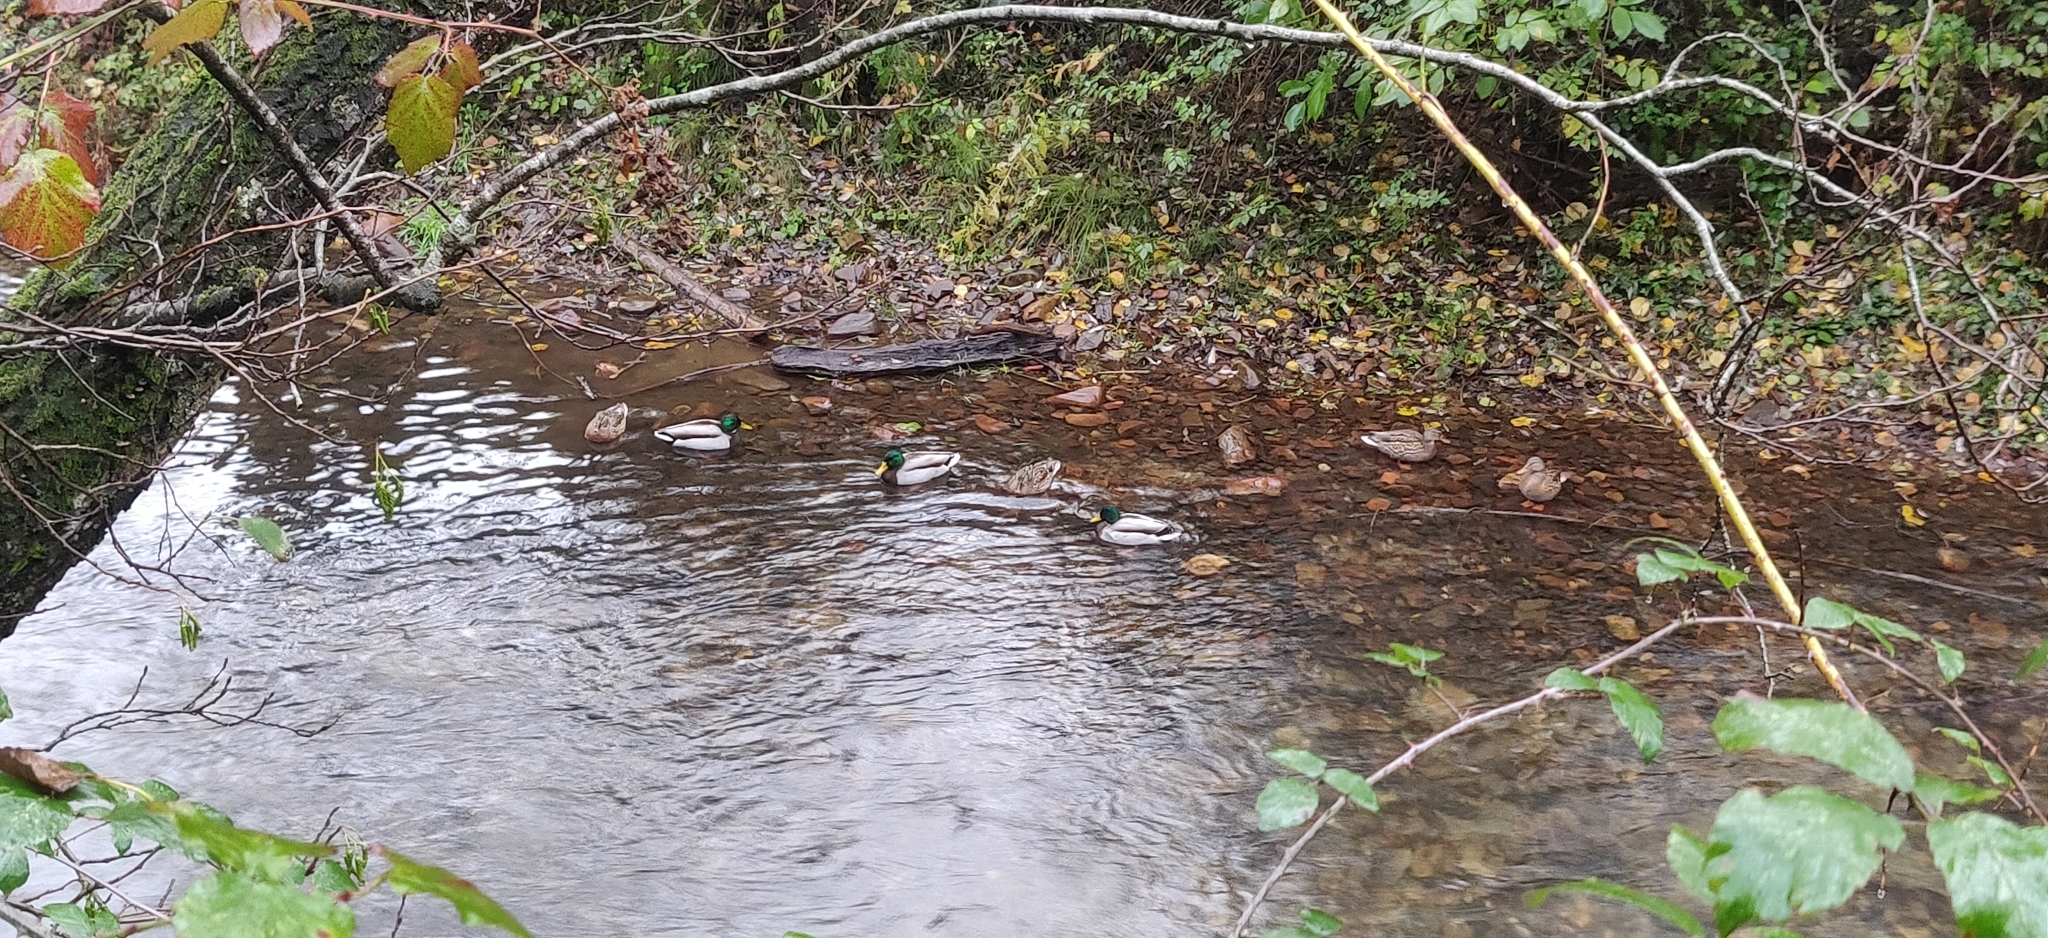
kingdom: Animalia
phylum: Chordata
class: Aves
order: Anseriformes
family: Anatidae
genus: Anas
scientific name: Anas platyrhynchos
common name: Mallard
